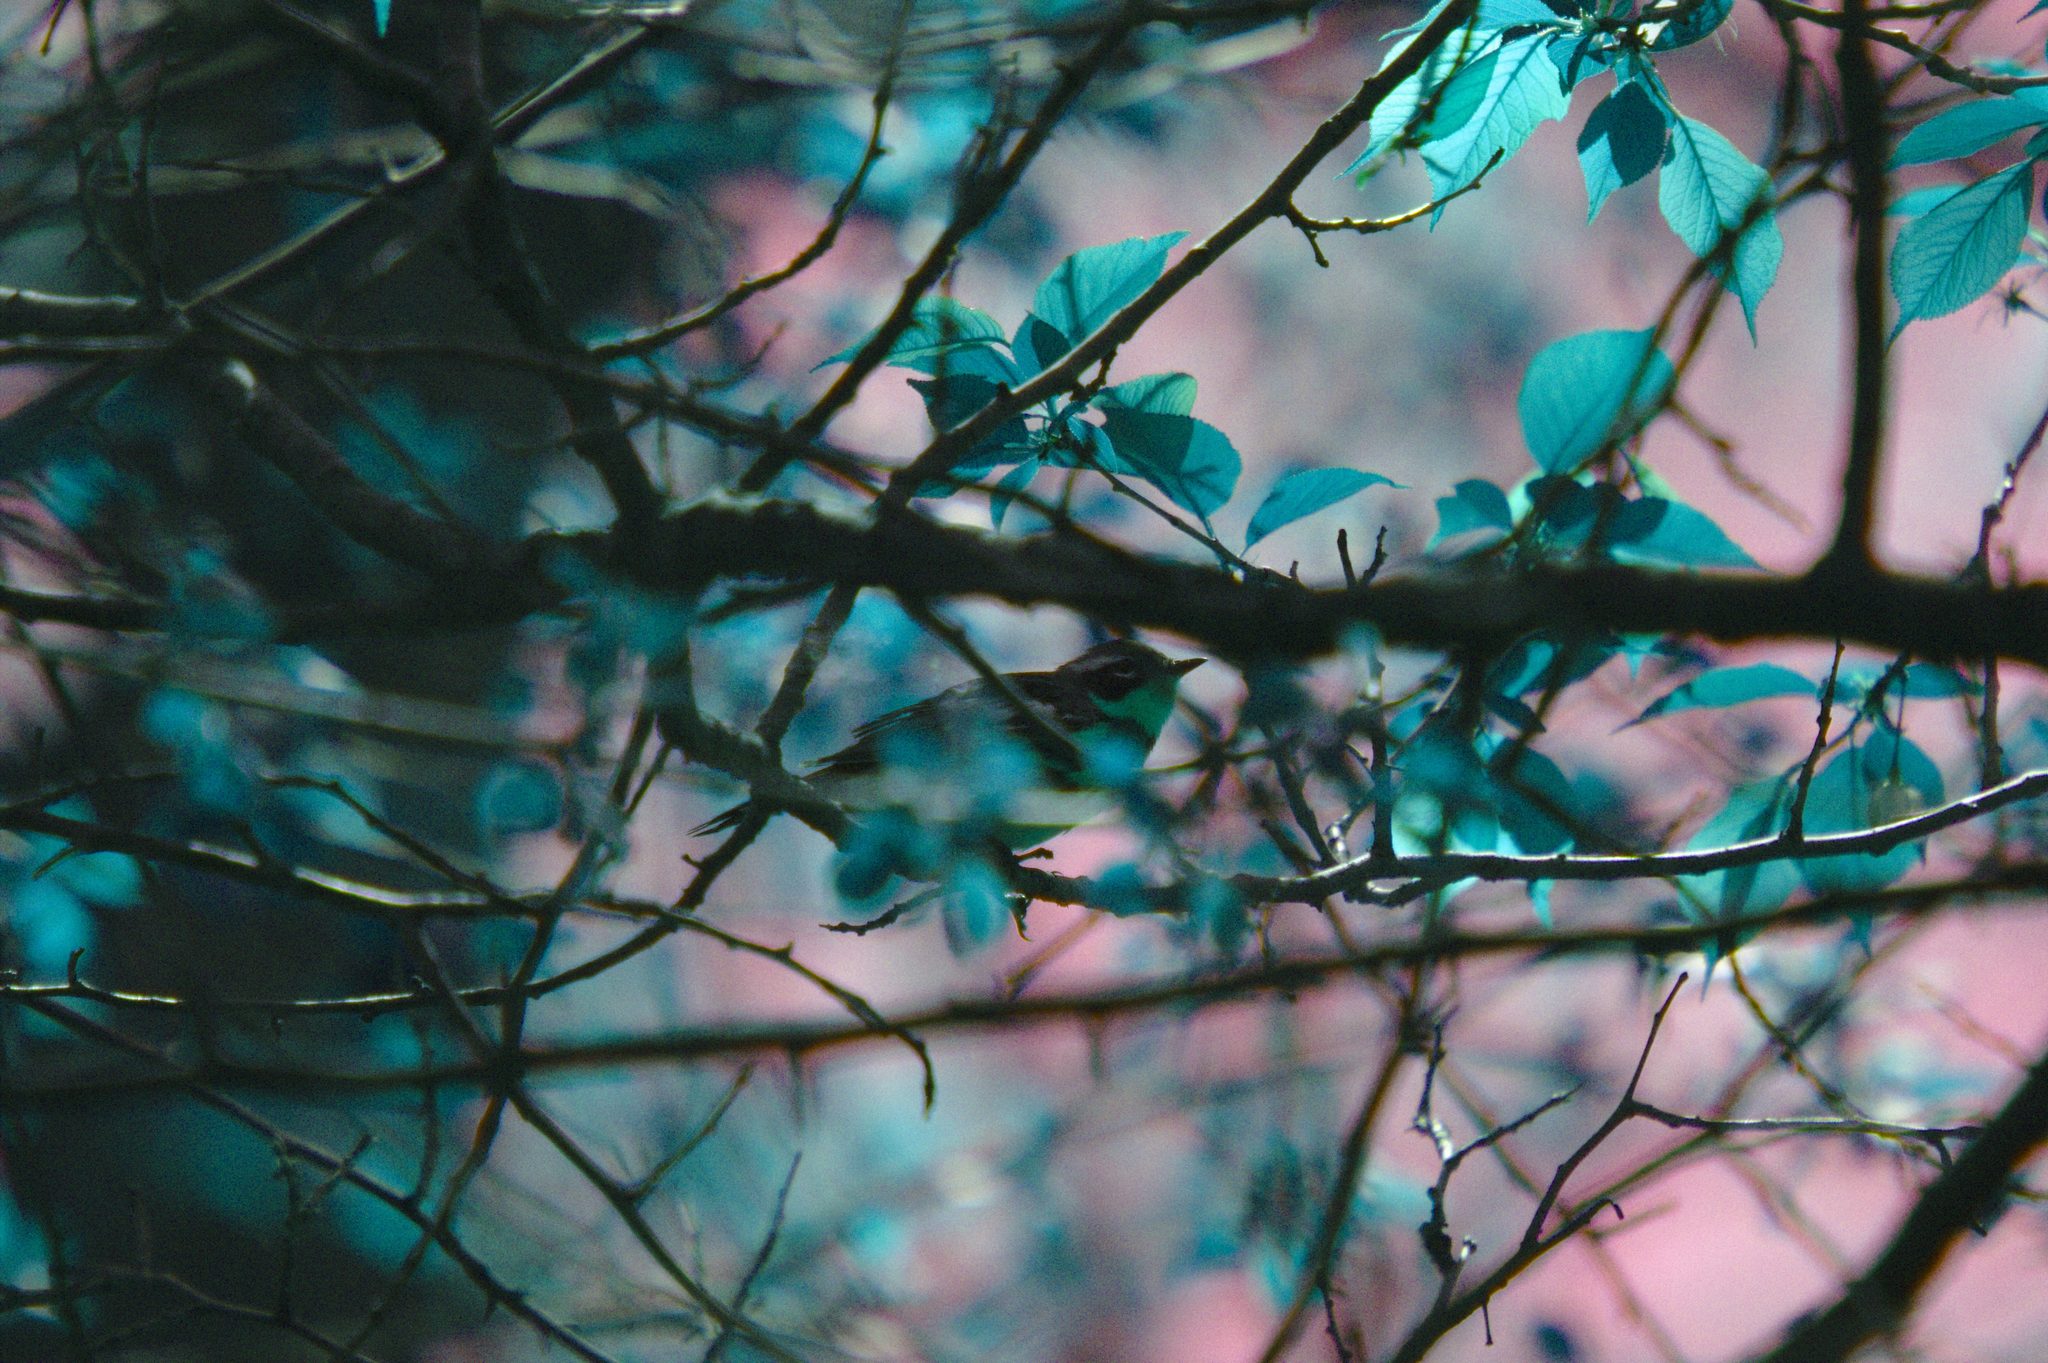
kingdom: Animalia
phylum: Chordata
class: Aves
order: Passeriformes
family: Parulidae
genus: Setophaga
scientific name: Setophaga magnolia
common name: Magnolia warbler
